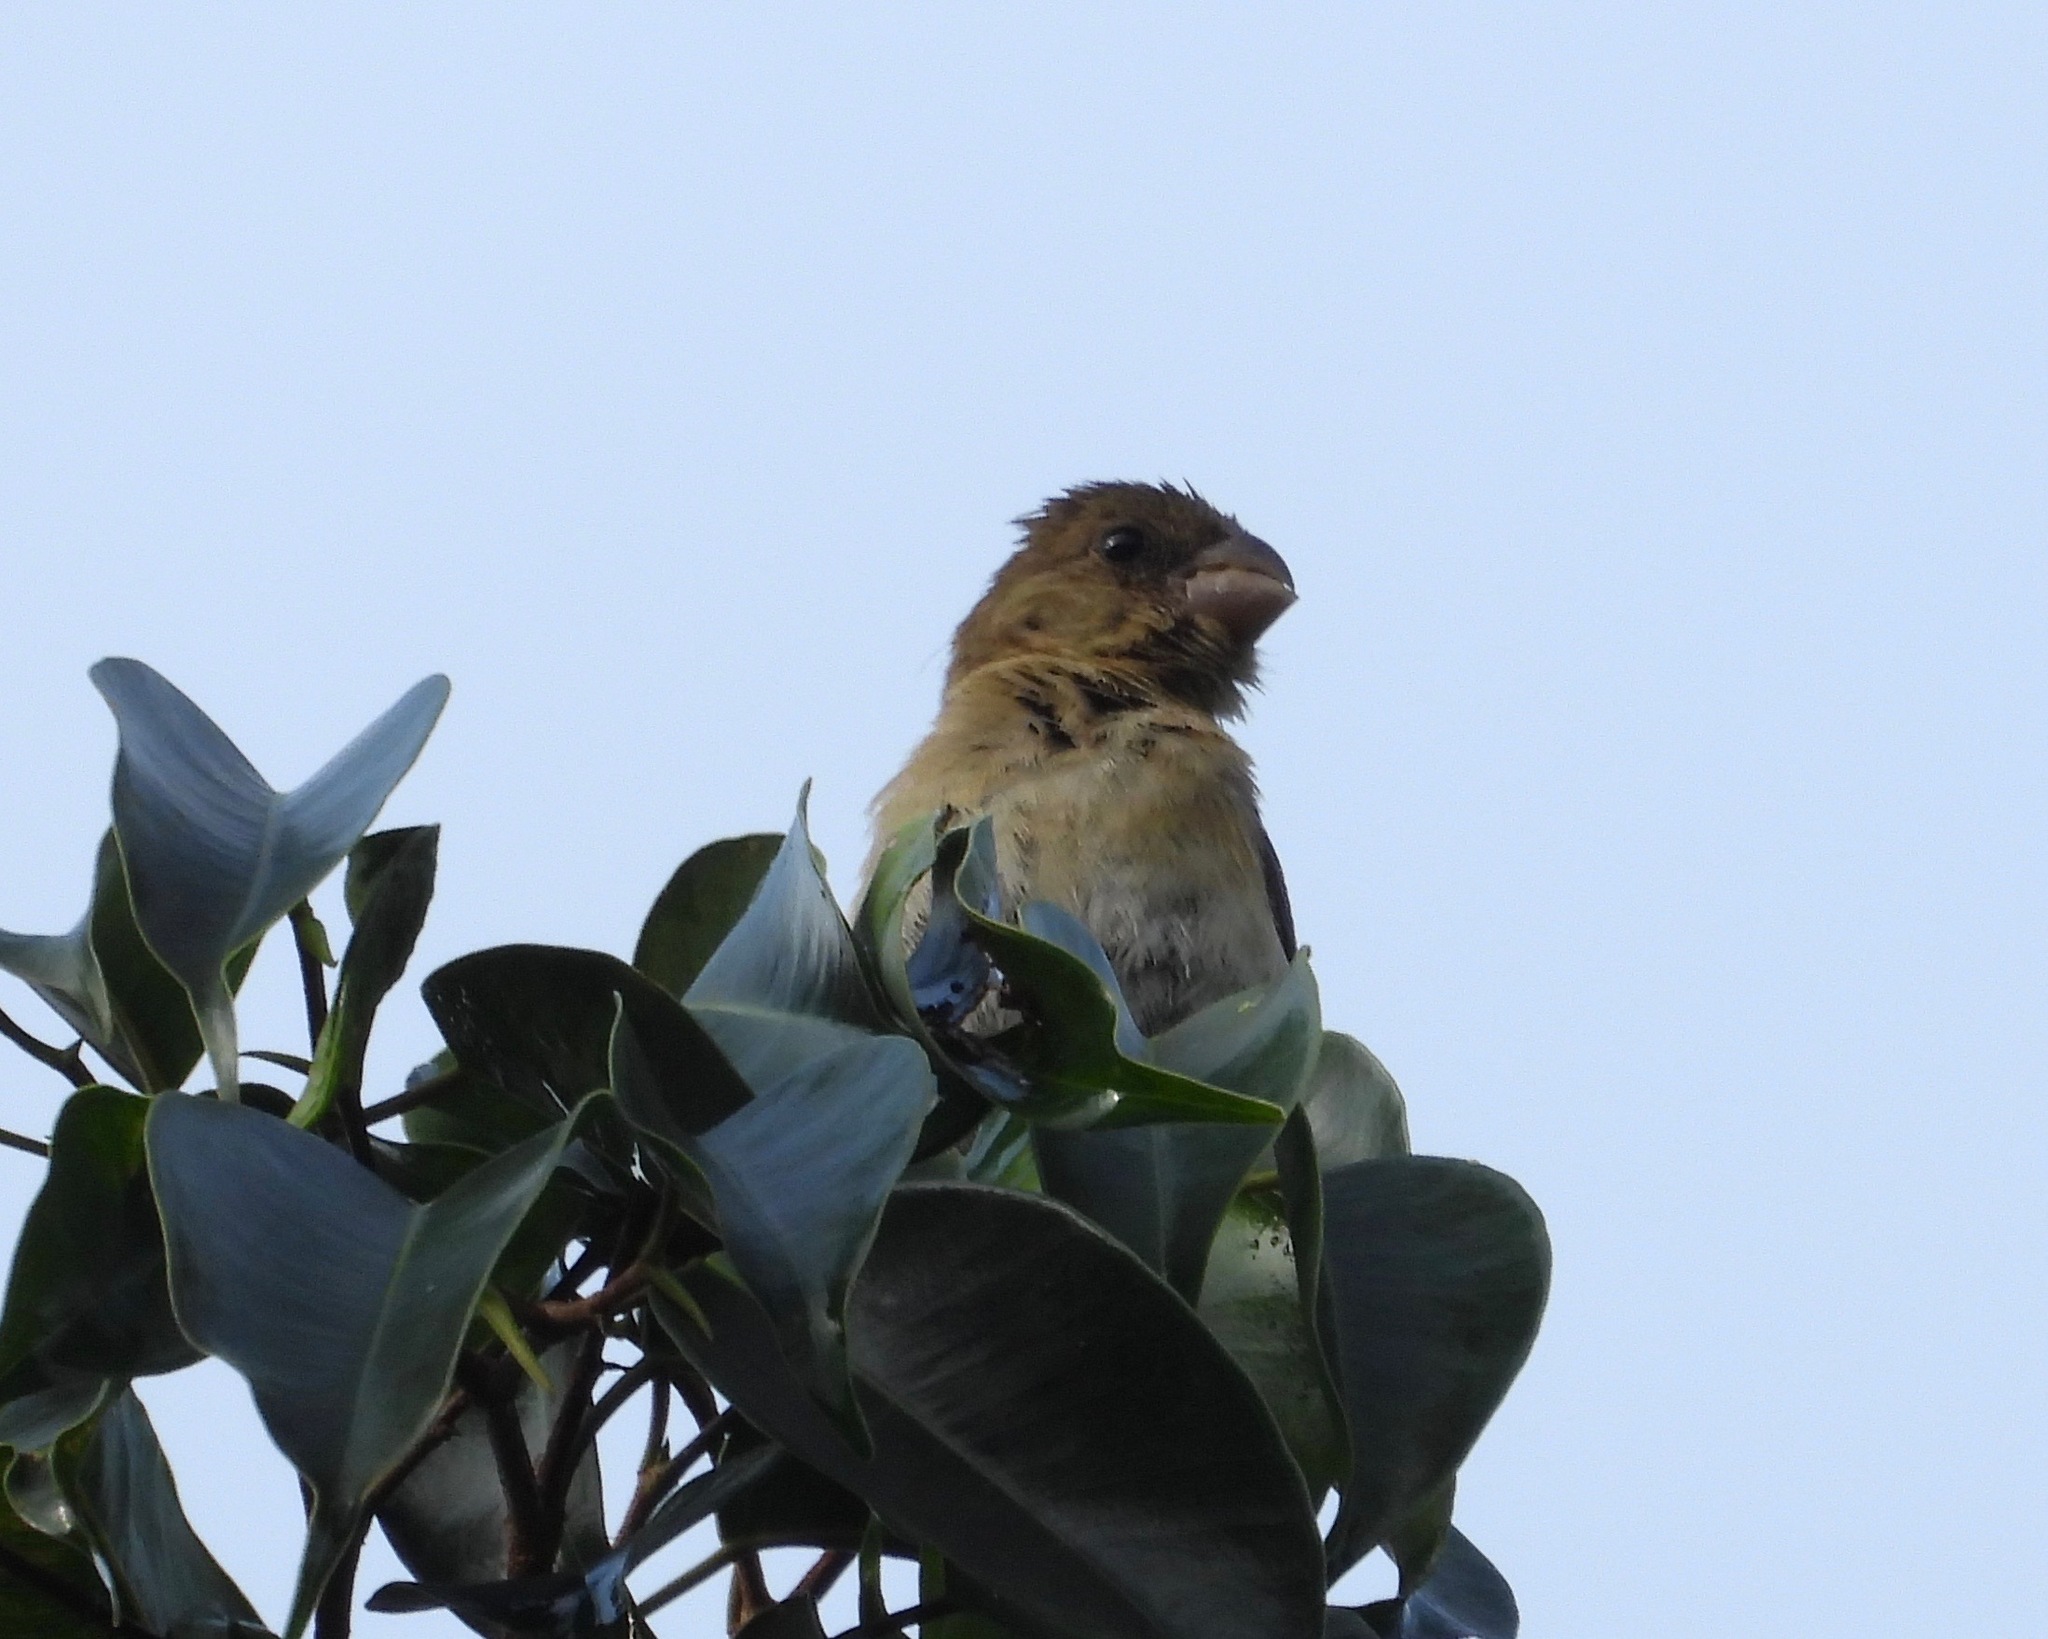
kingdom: Animalia
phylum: Chordata
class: Aves
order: Passeriformes
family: Thraupidae
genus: Sporophila
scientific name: Sporophila morelleti
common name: Morelet's seedeater
